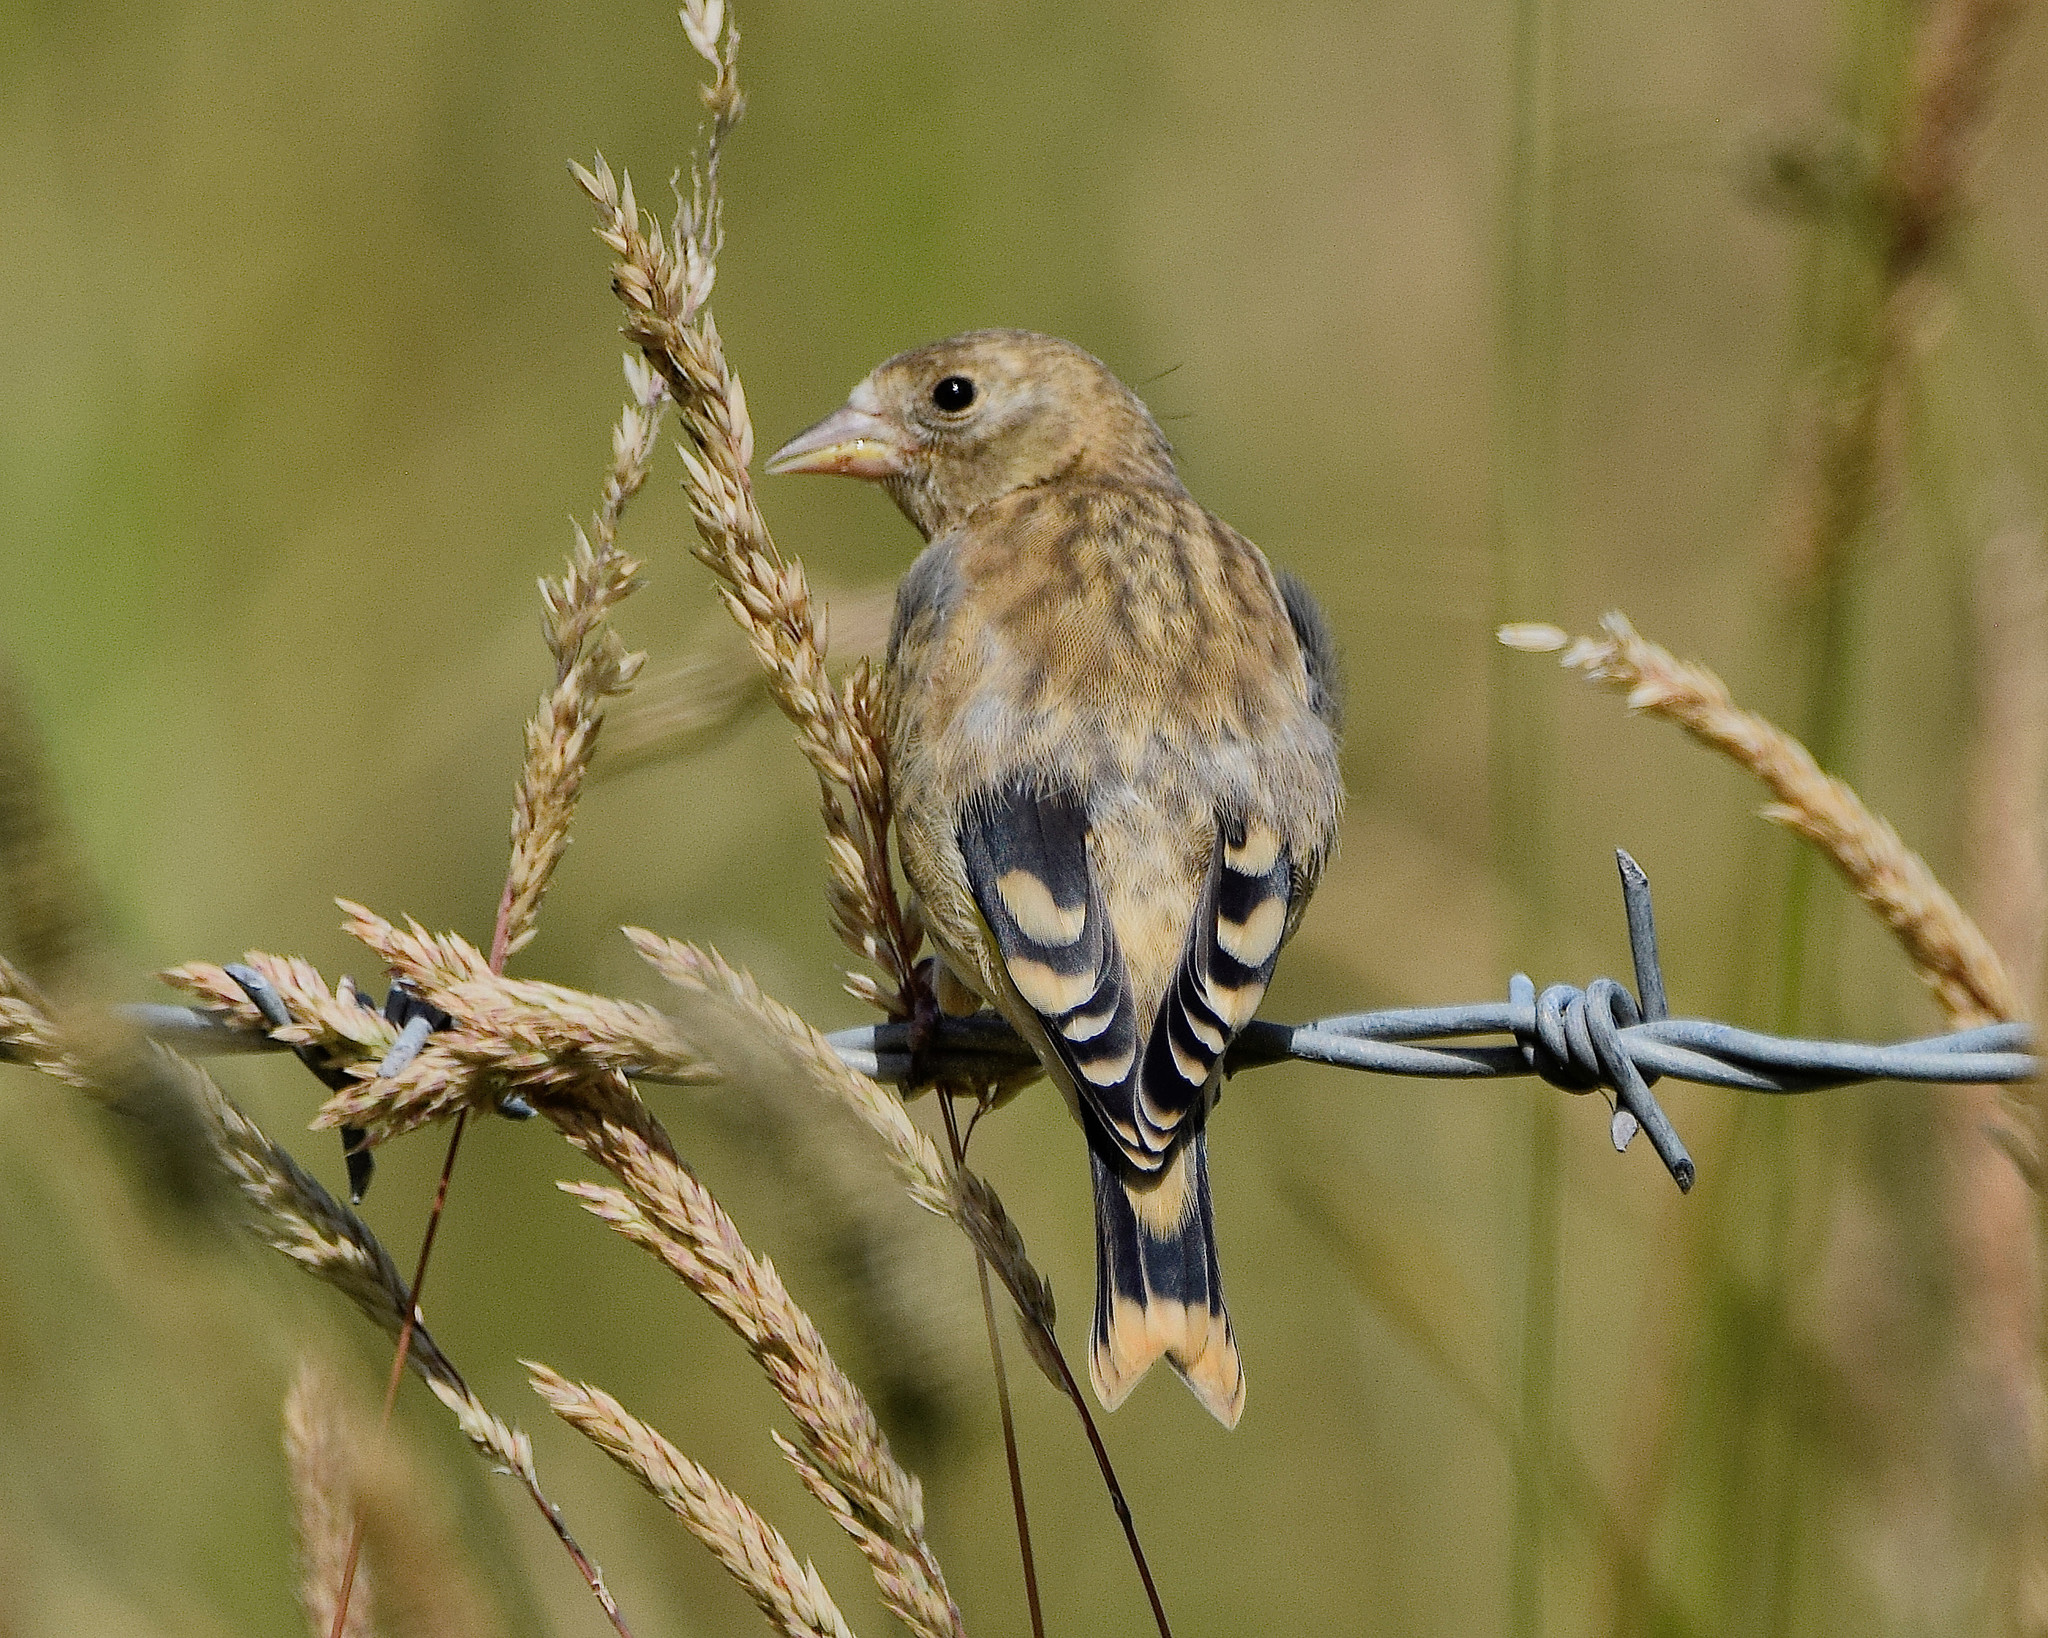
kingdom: Animalia
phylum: Chordata
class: Aves
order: Passeriformes
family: Fringillidae
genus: Carduelis
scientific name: Carduelis carduelis
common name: European goldfinch
